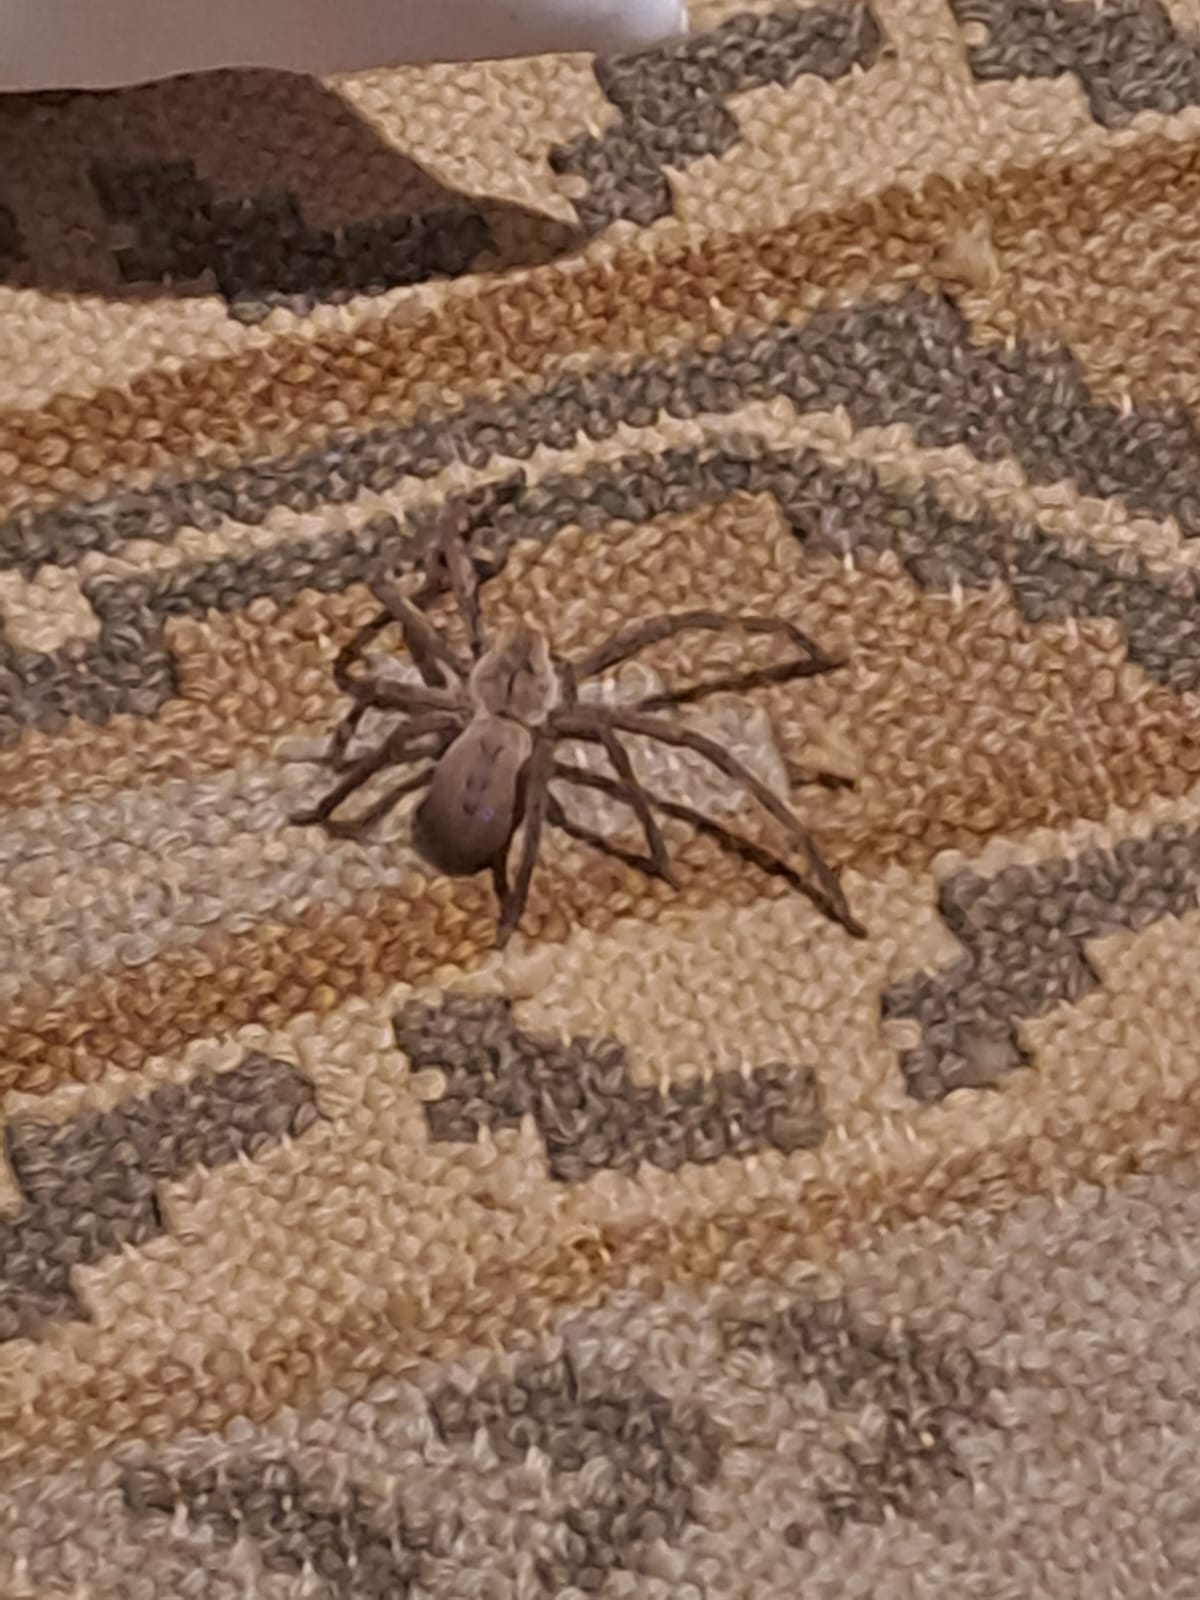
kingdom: Animalia
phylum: Arthropoda
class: Arachnida
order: Araneae
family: Sparassidae
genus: Palystes
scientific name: Palystes superciliosus
